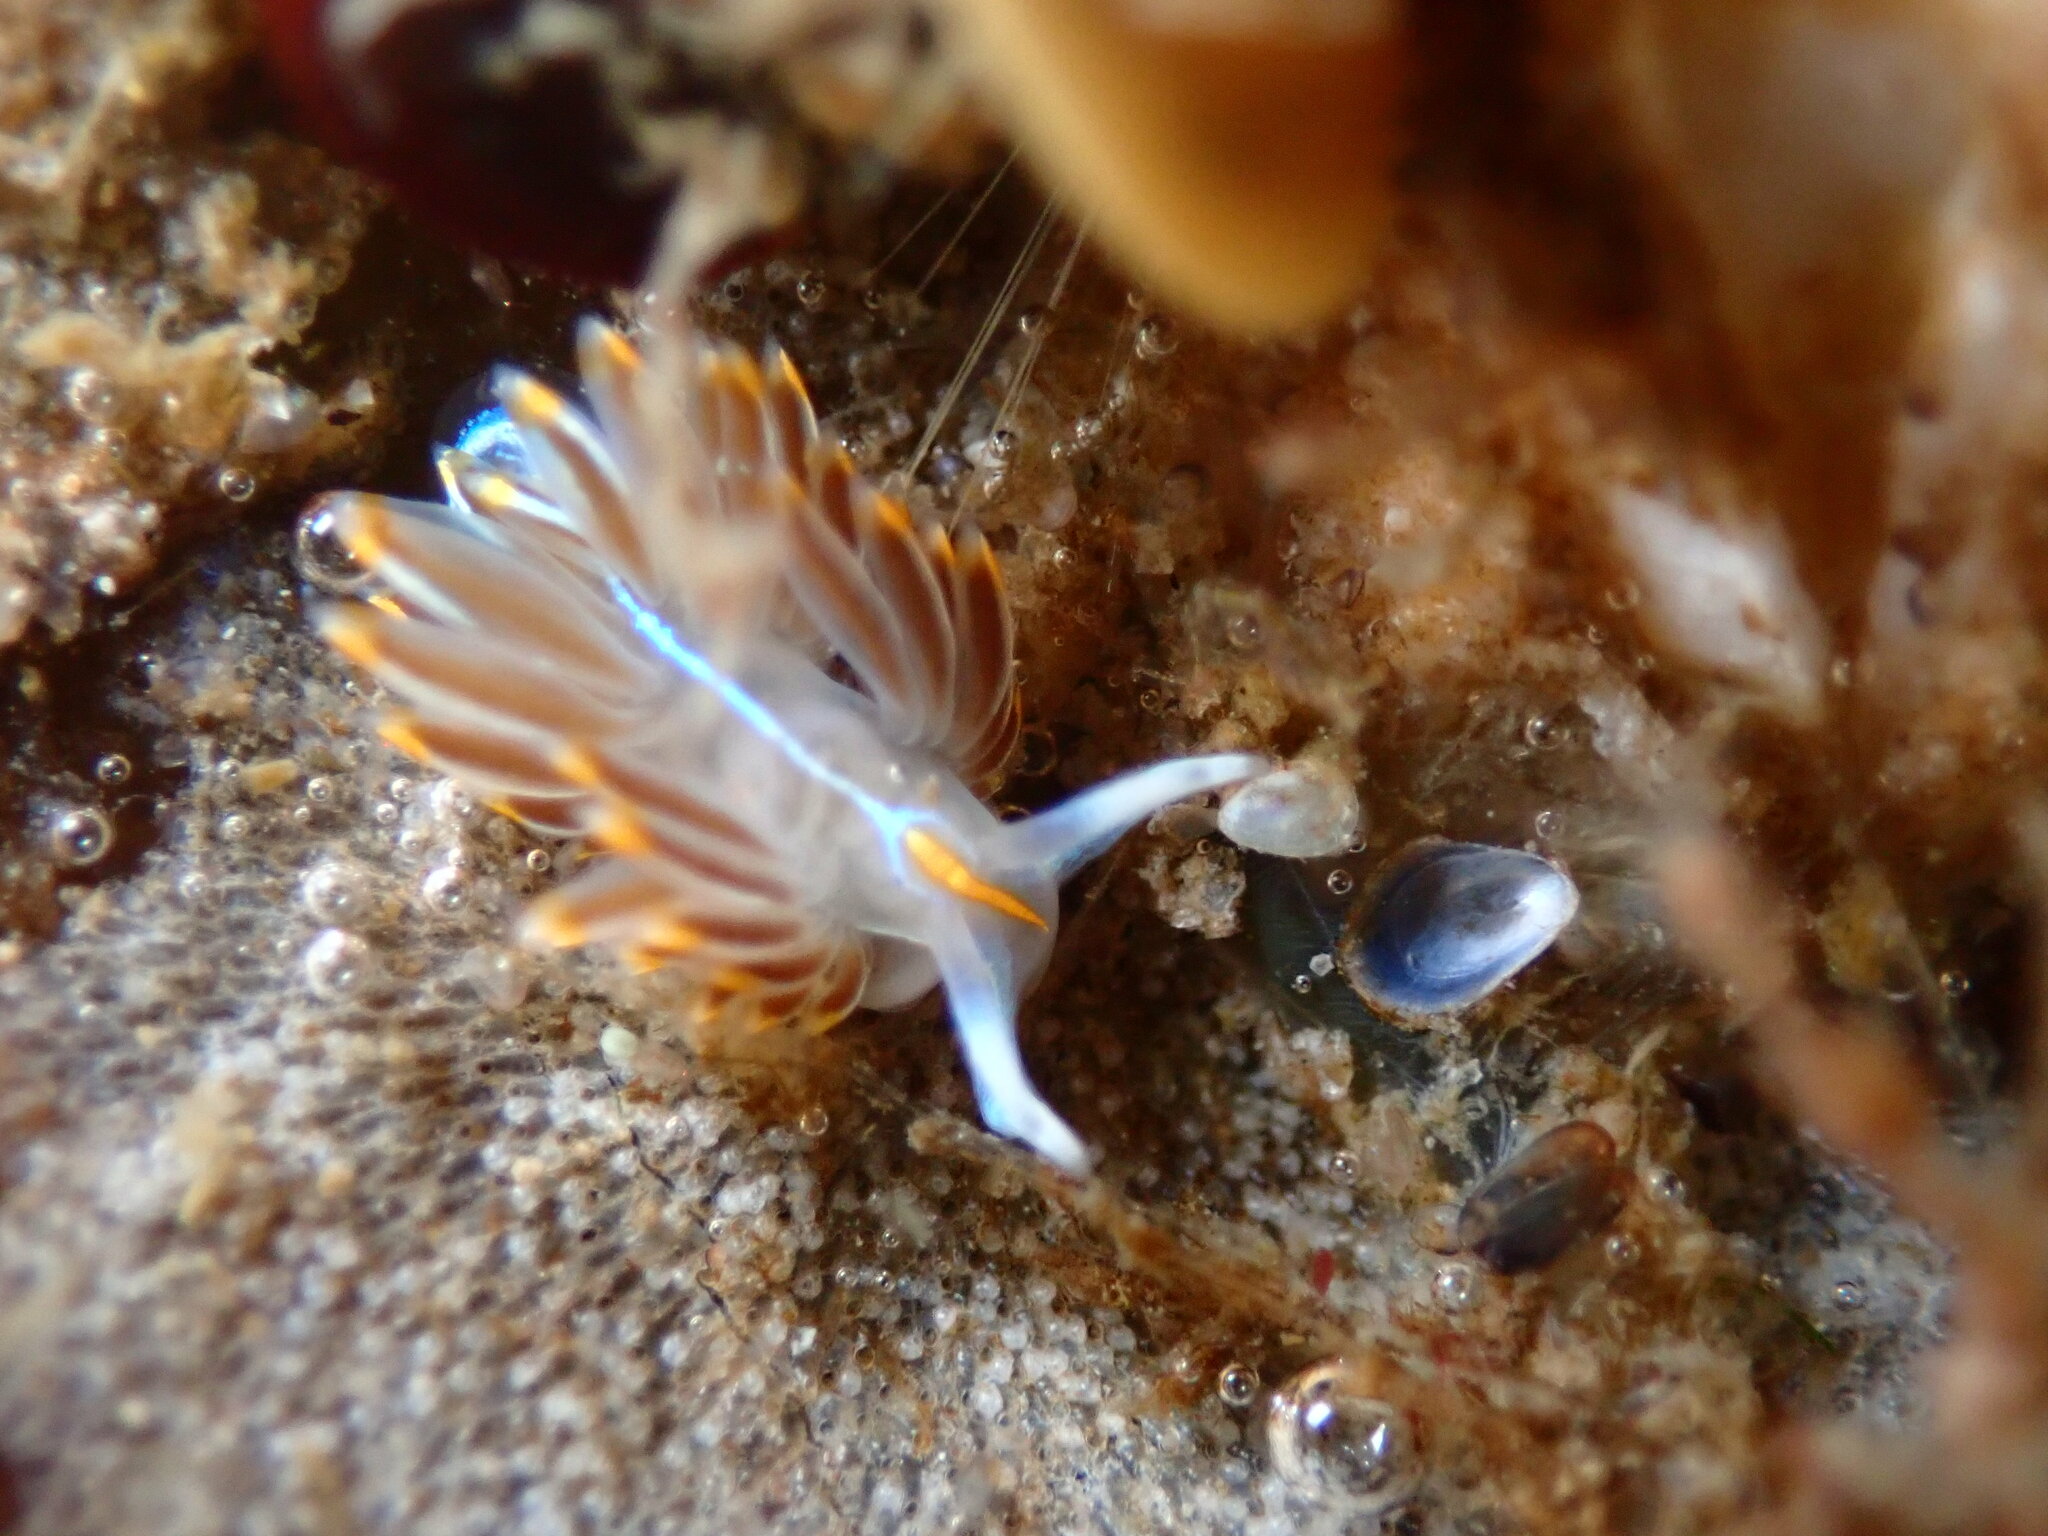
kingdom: Animalia
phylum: Mollusca
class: Gastropoda
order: Nudibranchia
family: Myrrhinidae
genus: Hermissenda
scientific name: Hermissenda crassicornis
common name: Hermissenda
